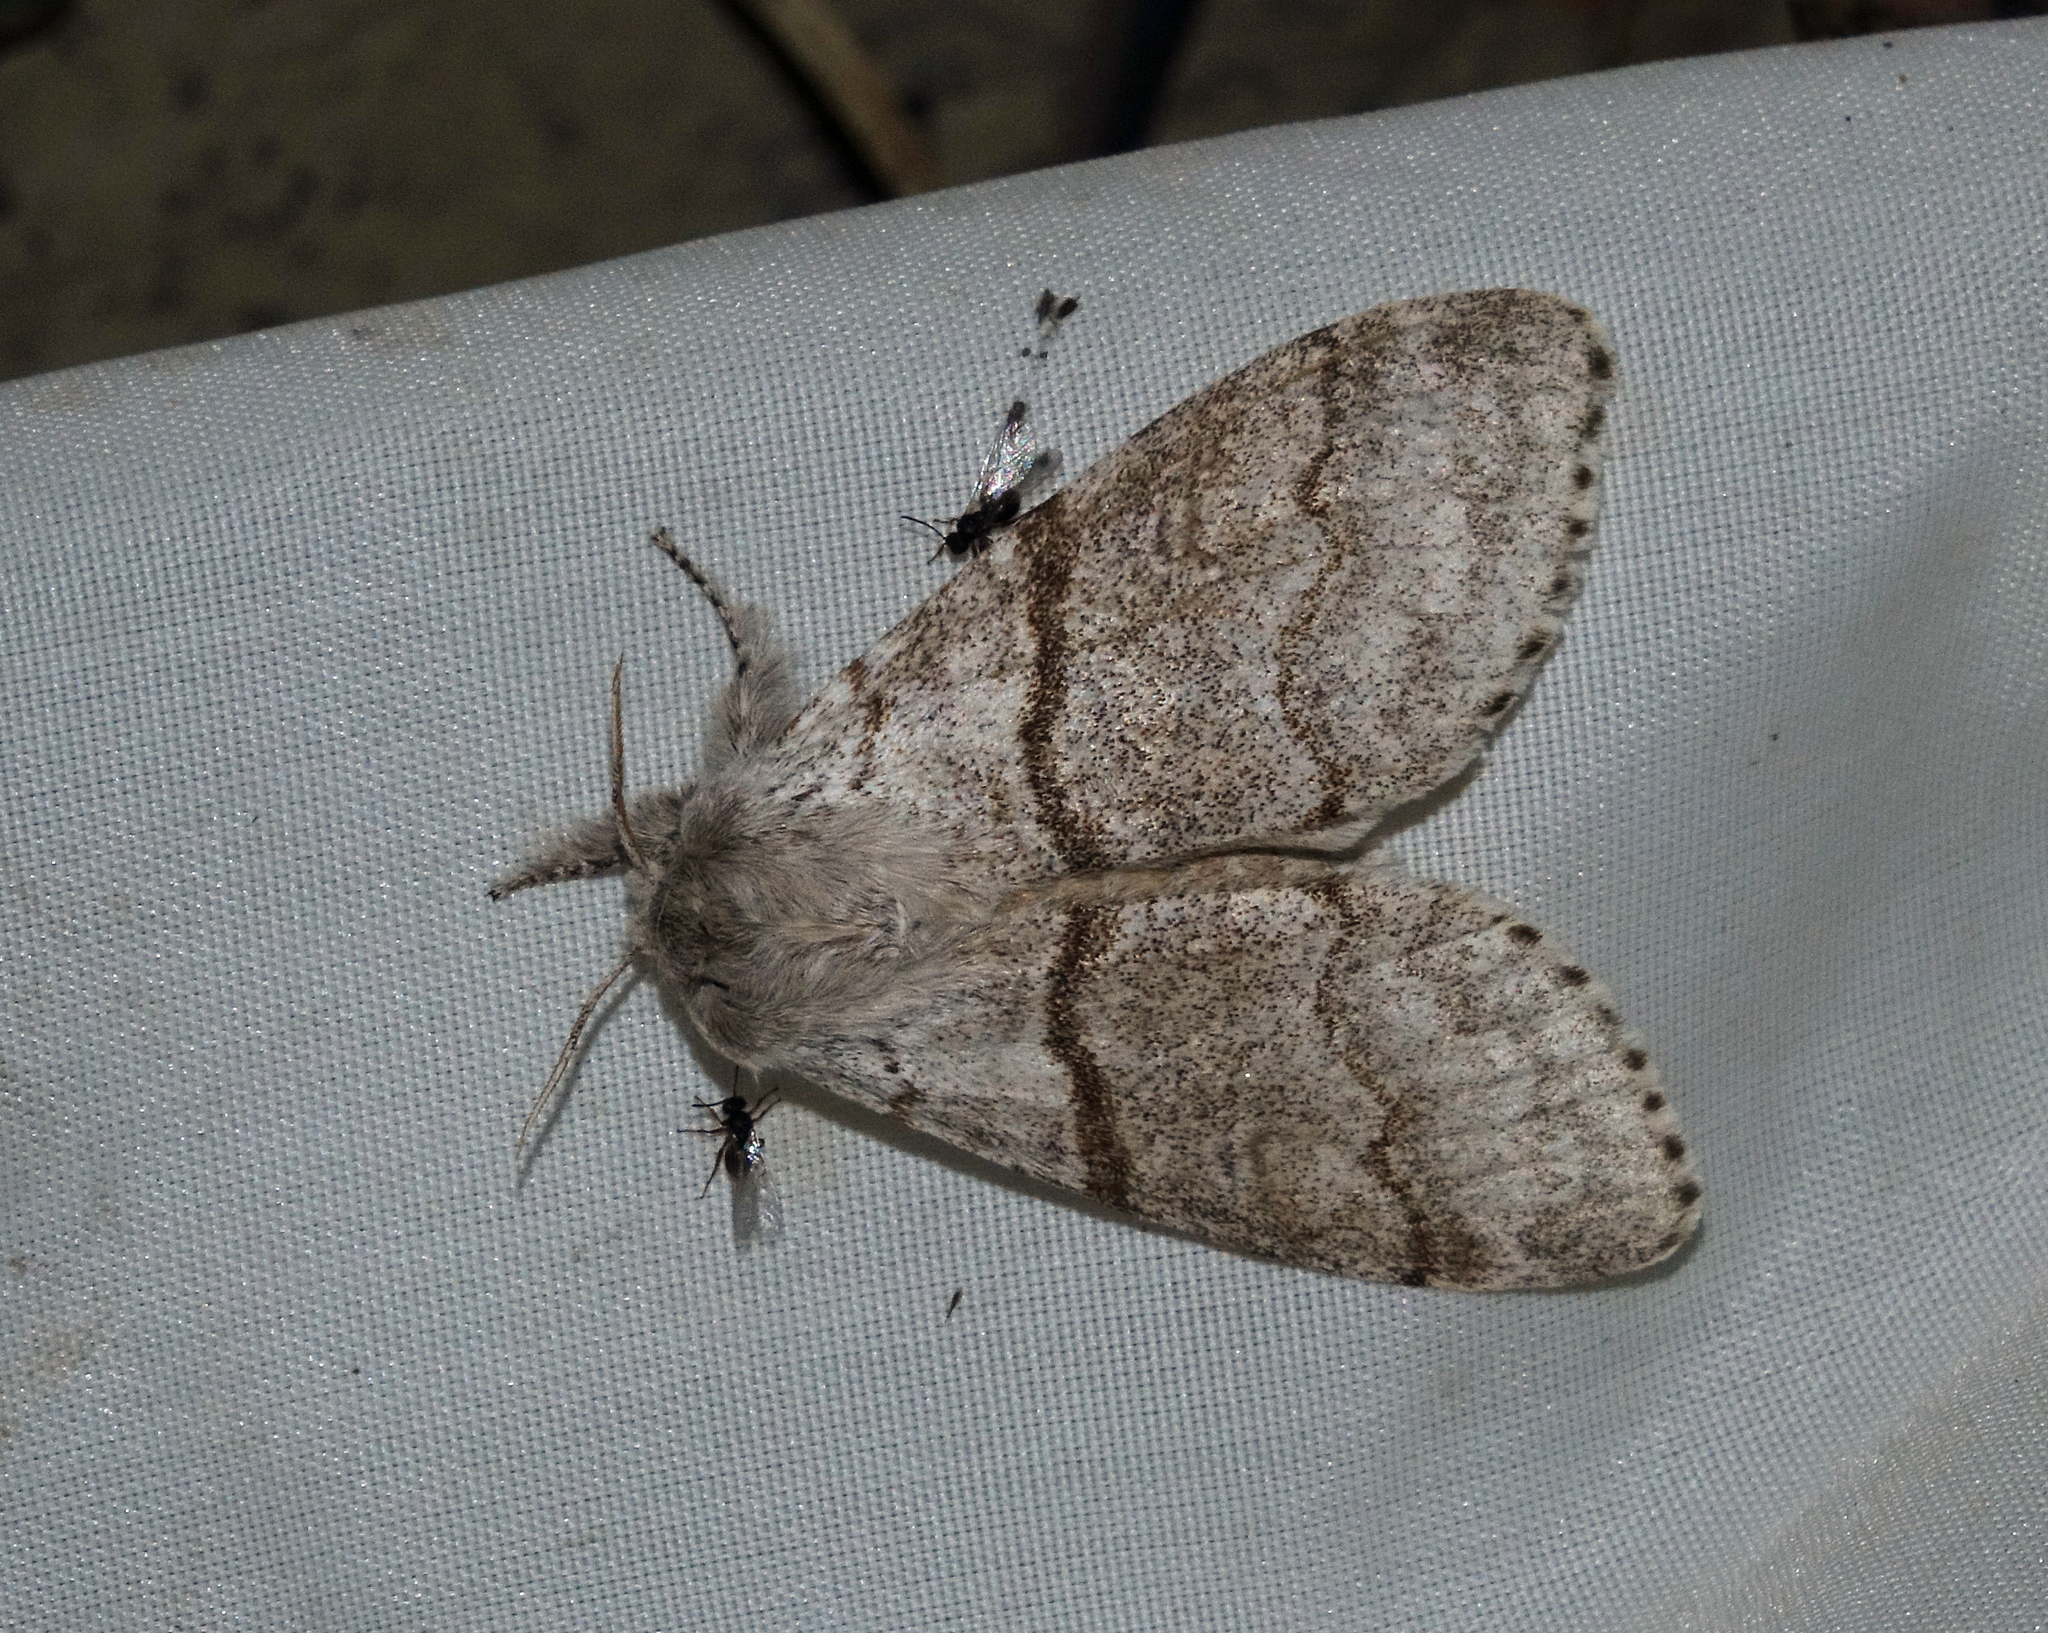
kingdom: Animalia
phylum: Arthropoda
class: Insecta
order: Lepidoptera
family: Erebidae
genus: Calliteara
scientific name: Calliteara pudibunda
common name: Pale tussock
